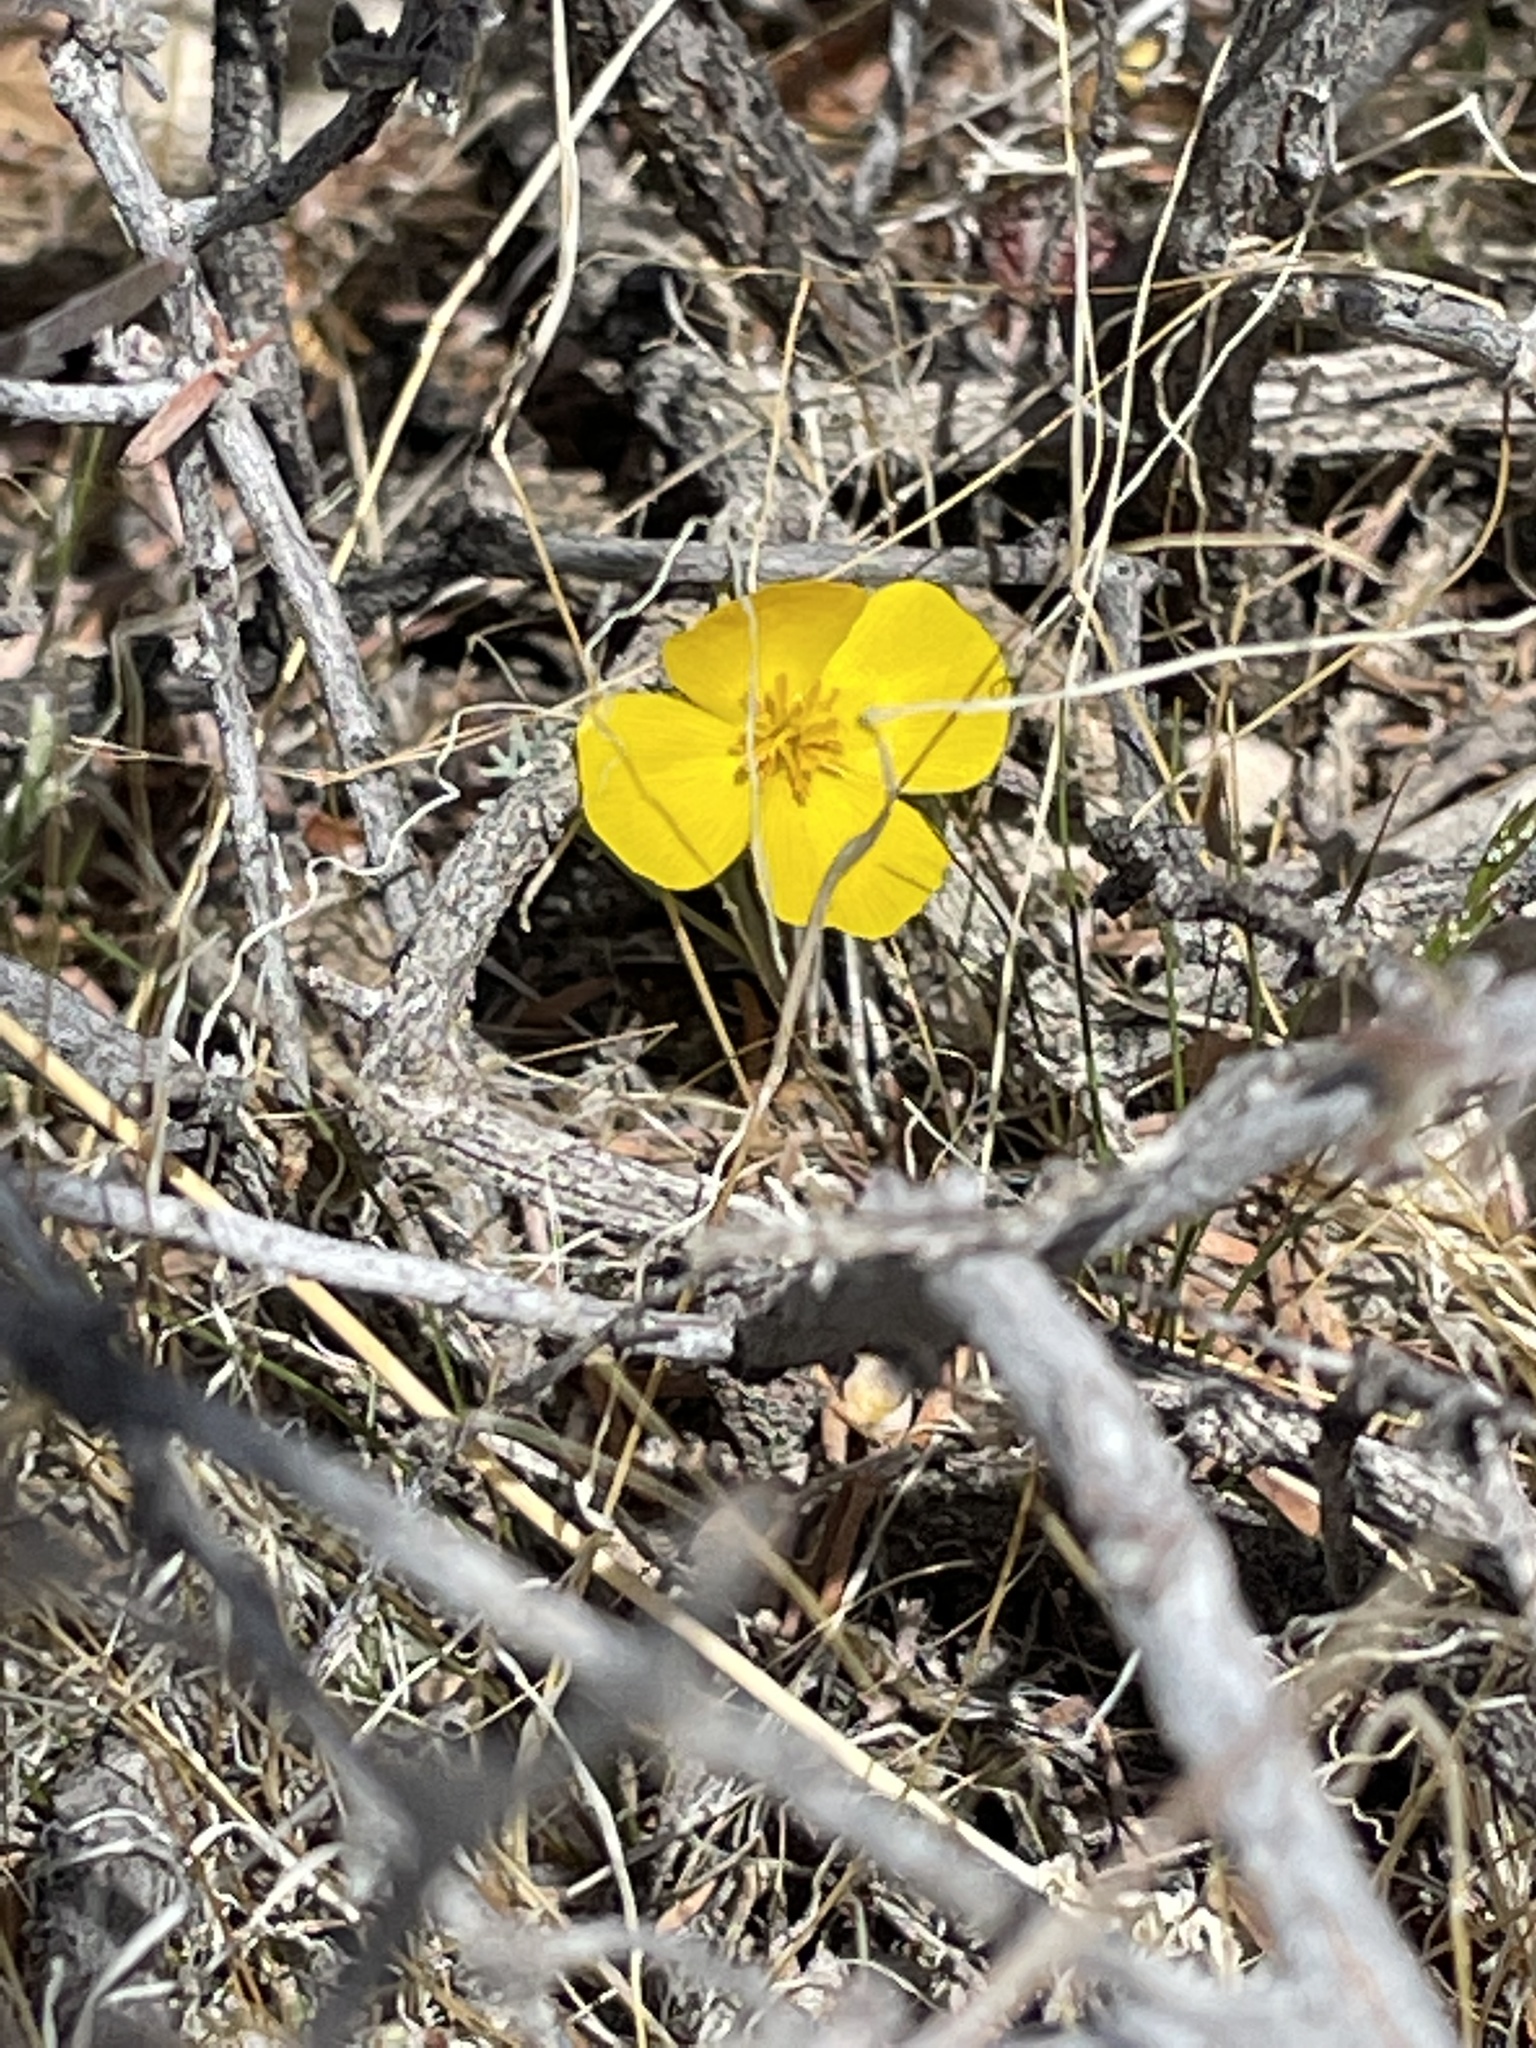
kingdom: Plantae
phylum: Tracheophyta
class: Magnoliopsida
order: Ranunculales
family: Papaveraceae
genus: Eschscholzia
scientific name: Eschscholzia
